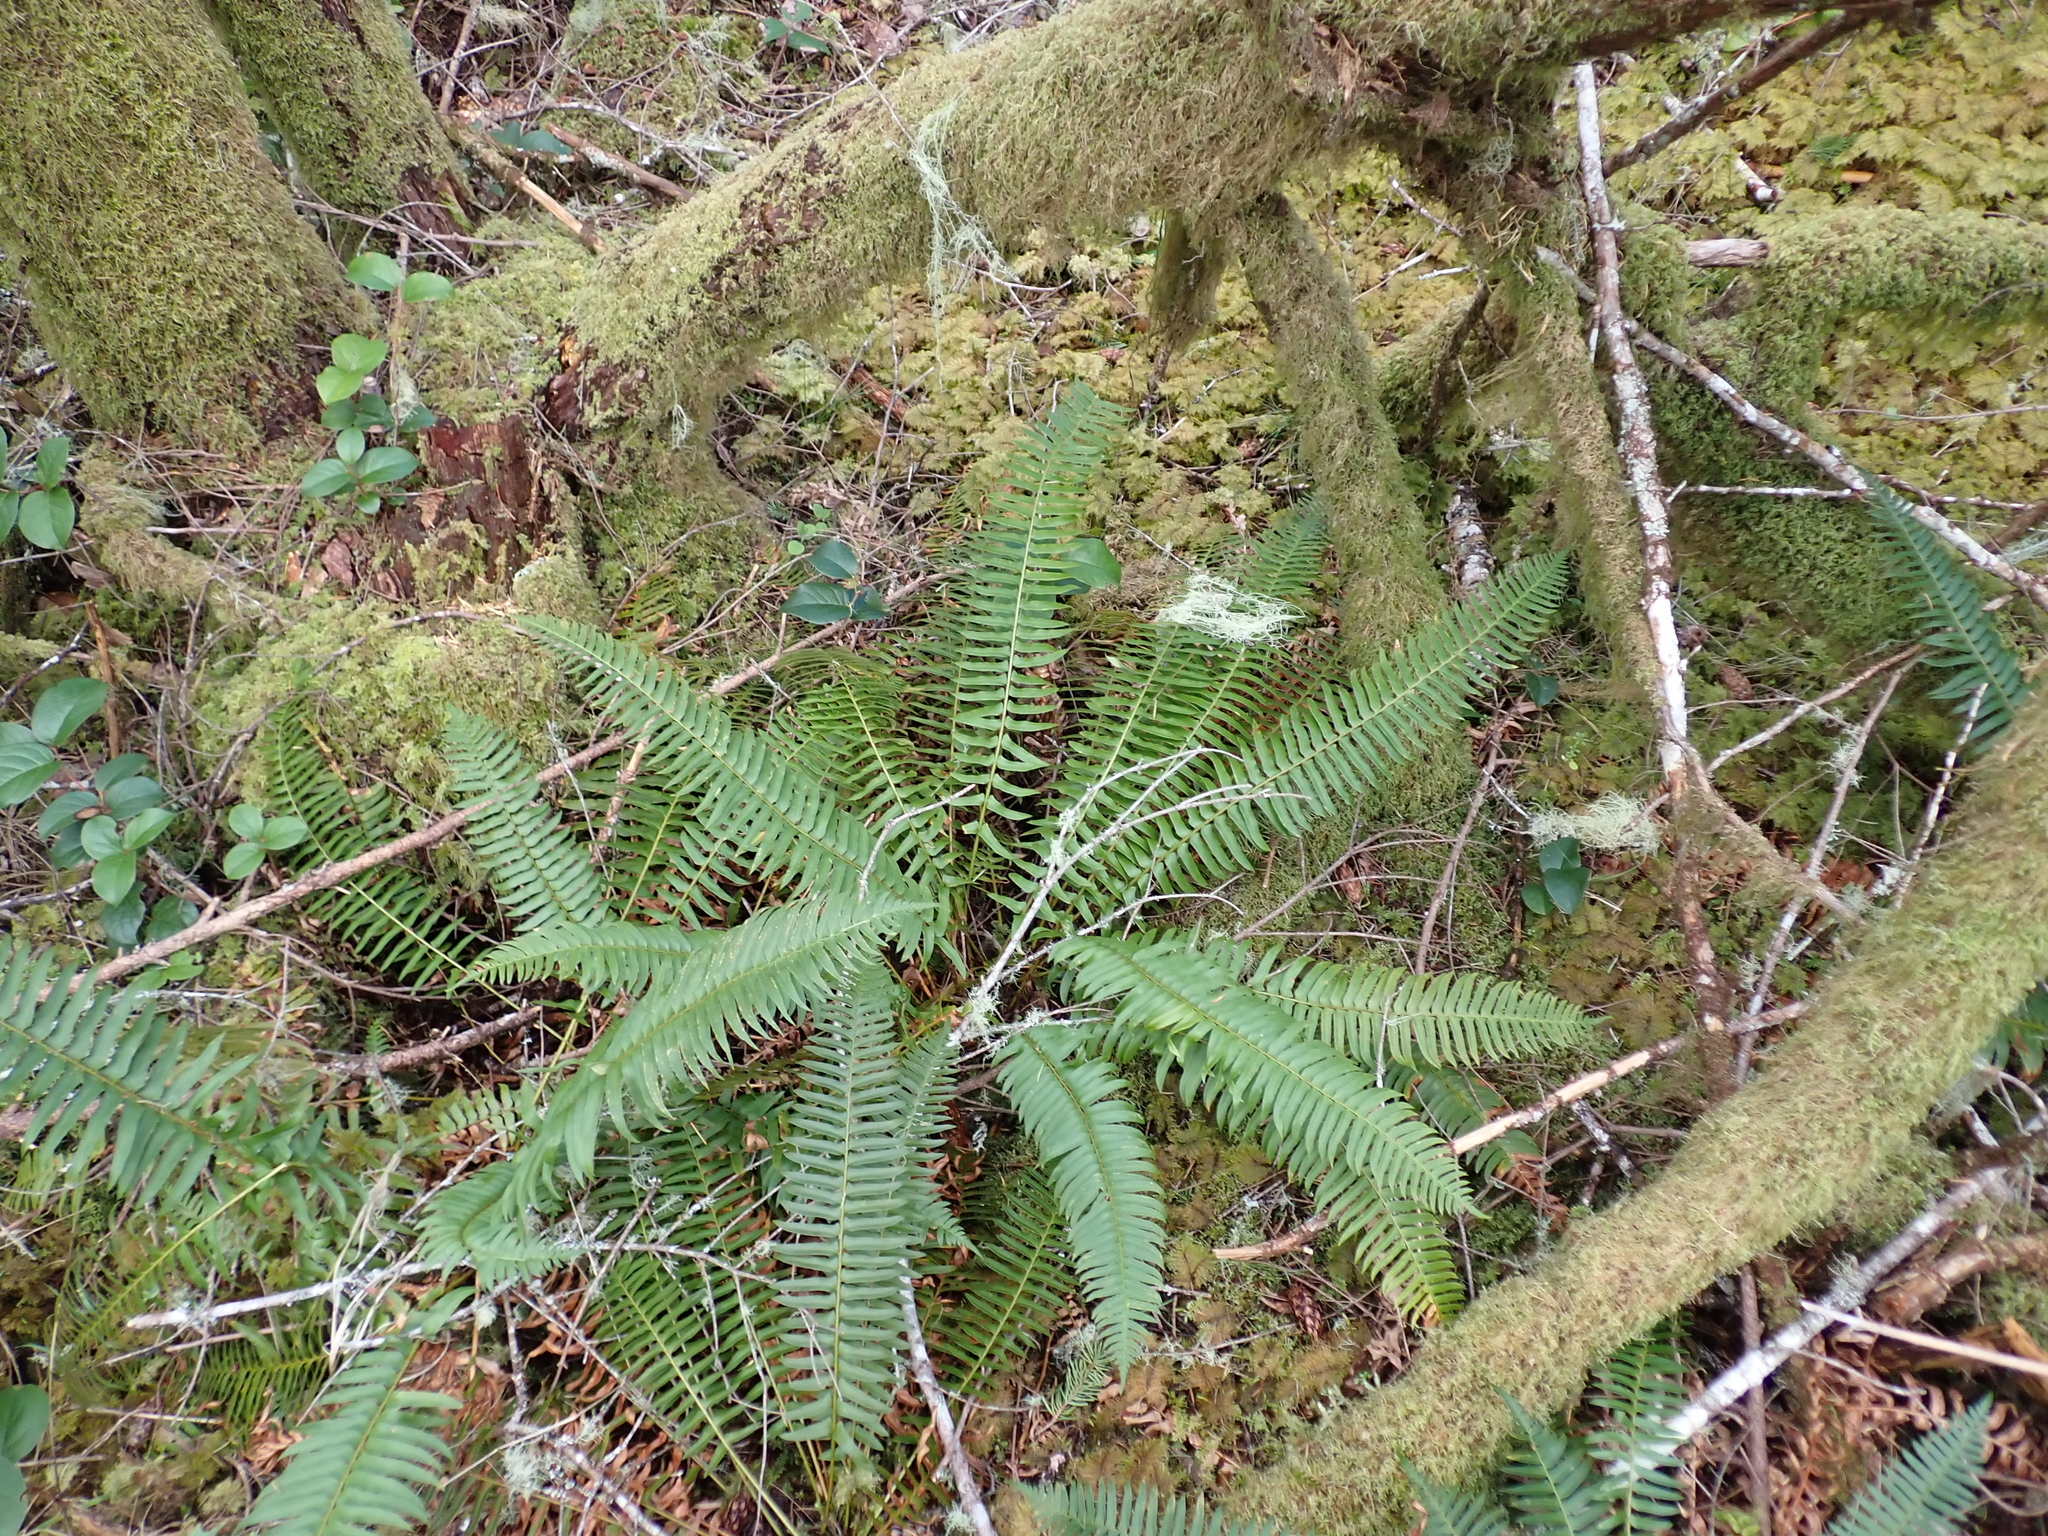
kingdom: Plantae
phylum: Tracheophyta
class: Polypodiopsida
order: Polypodiales
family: Dryopteridaceae
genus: Polystichum
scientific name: Polystichum munitum
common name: Western sword-fern
